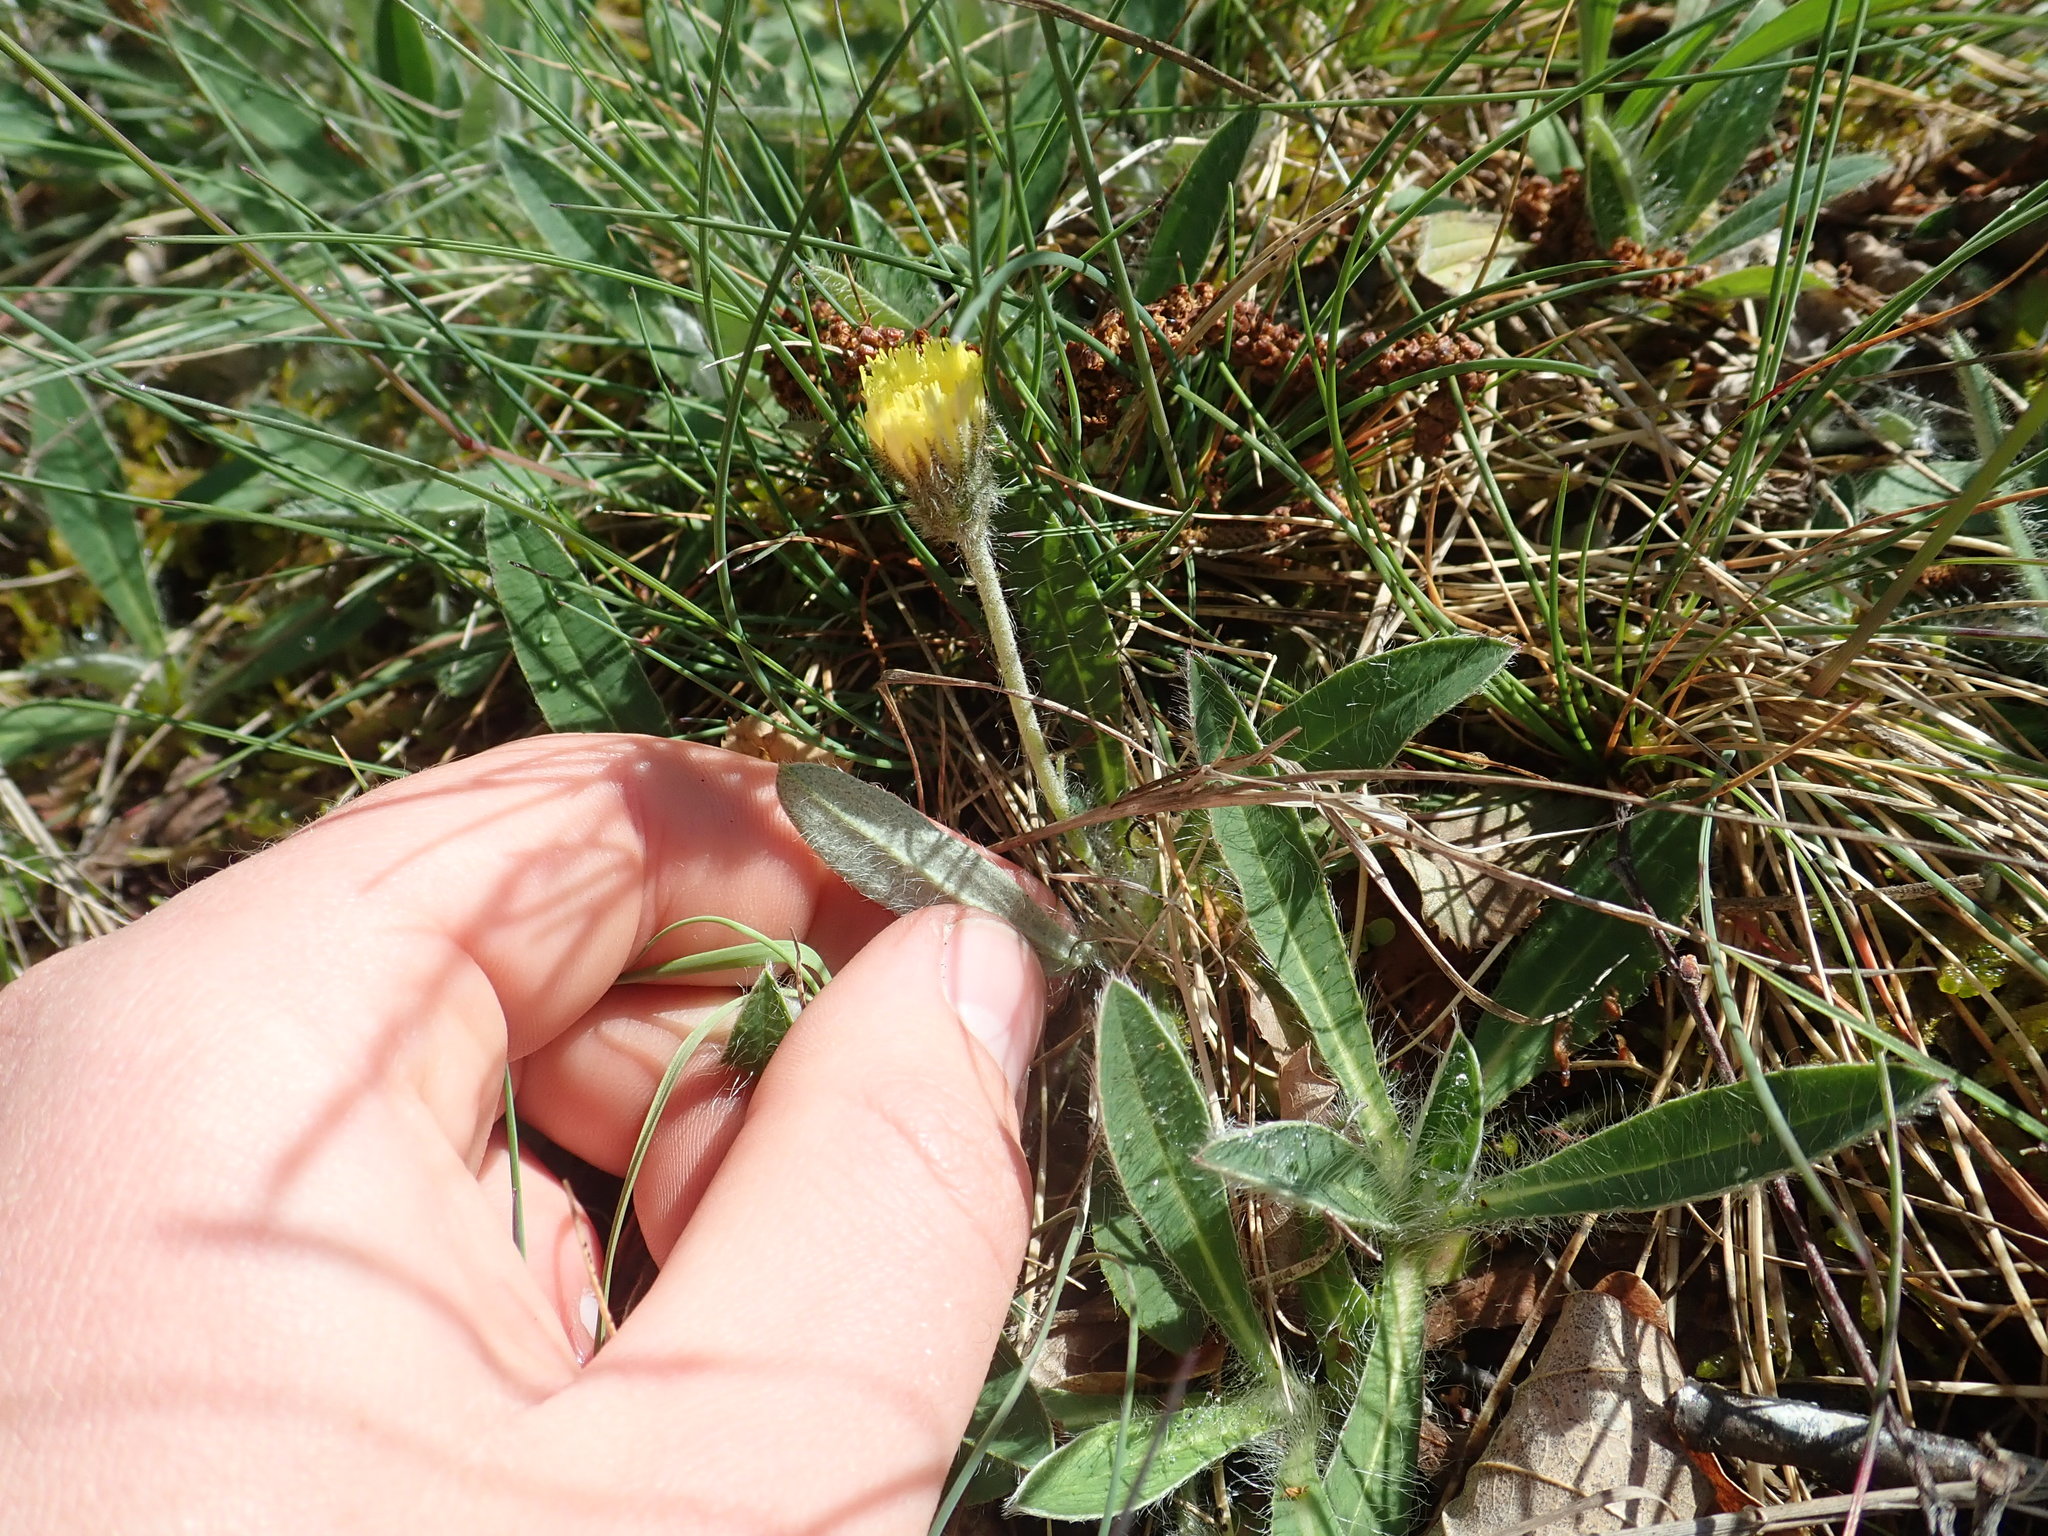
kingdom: Plantae
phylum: Tracheophyta
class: Magnoliopsida
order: Asterales
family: Asteraceae
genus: Pilosella
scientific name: Pilosella officinarum
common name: Mouse-ear hawkweed
